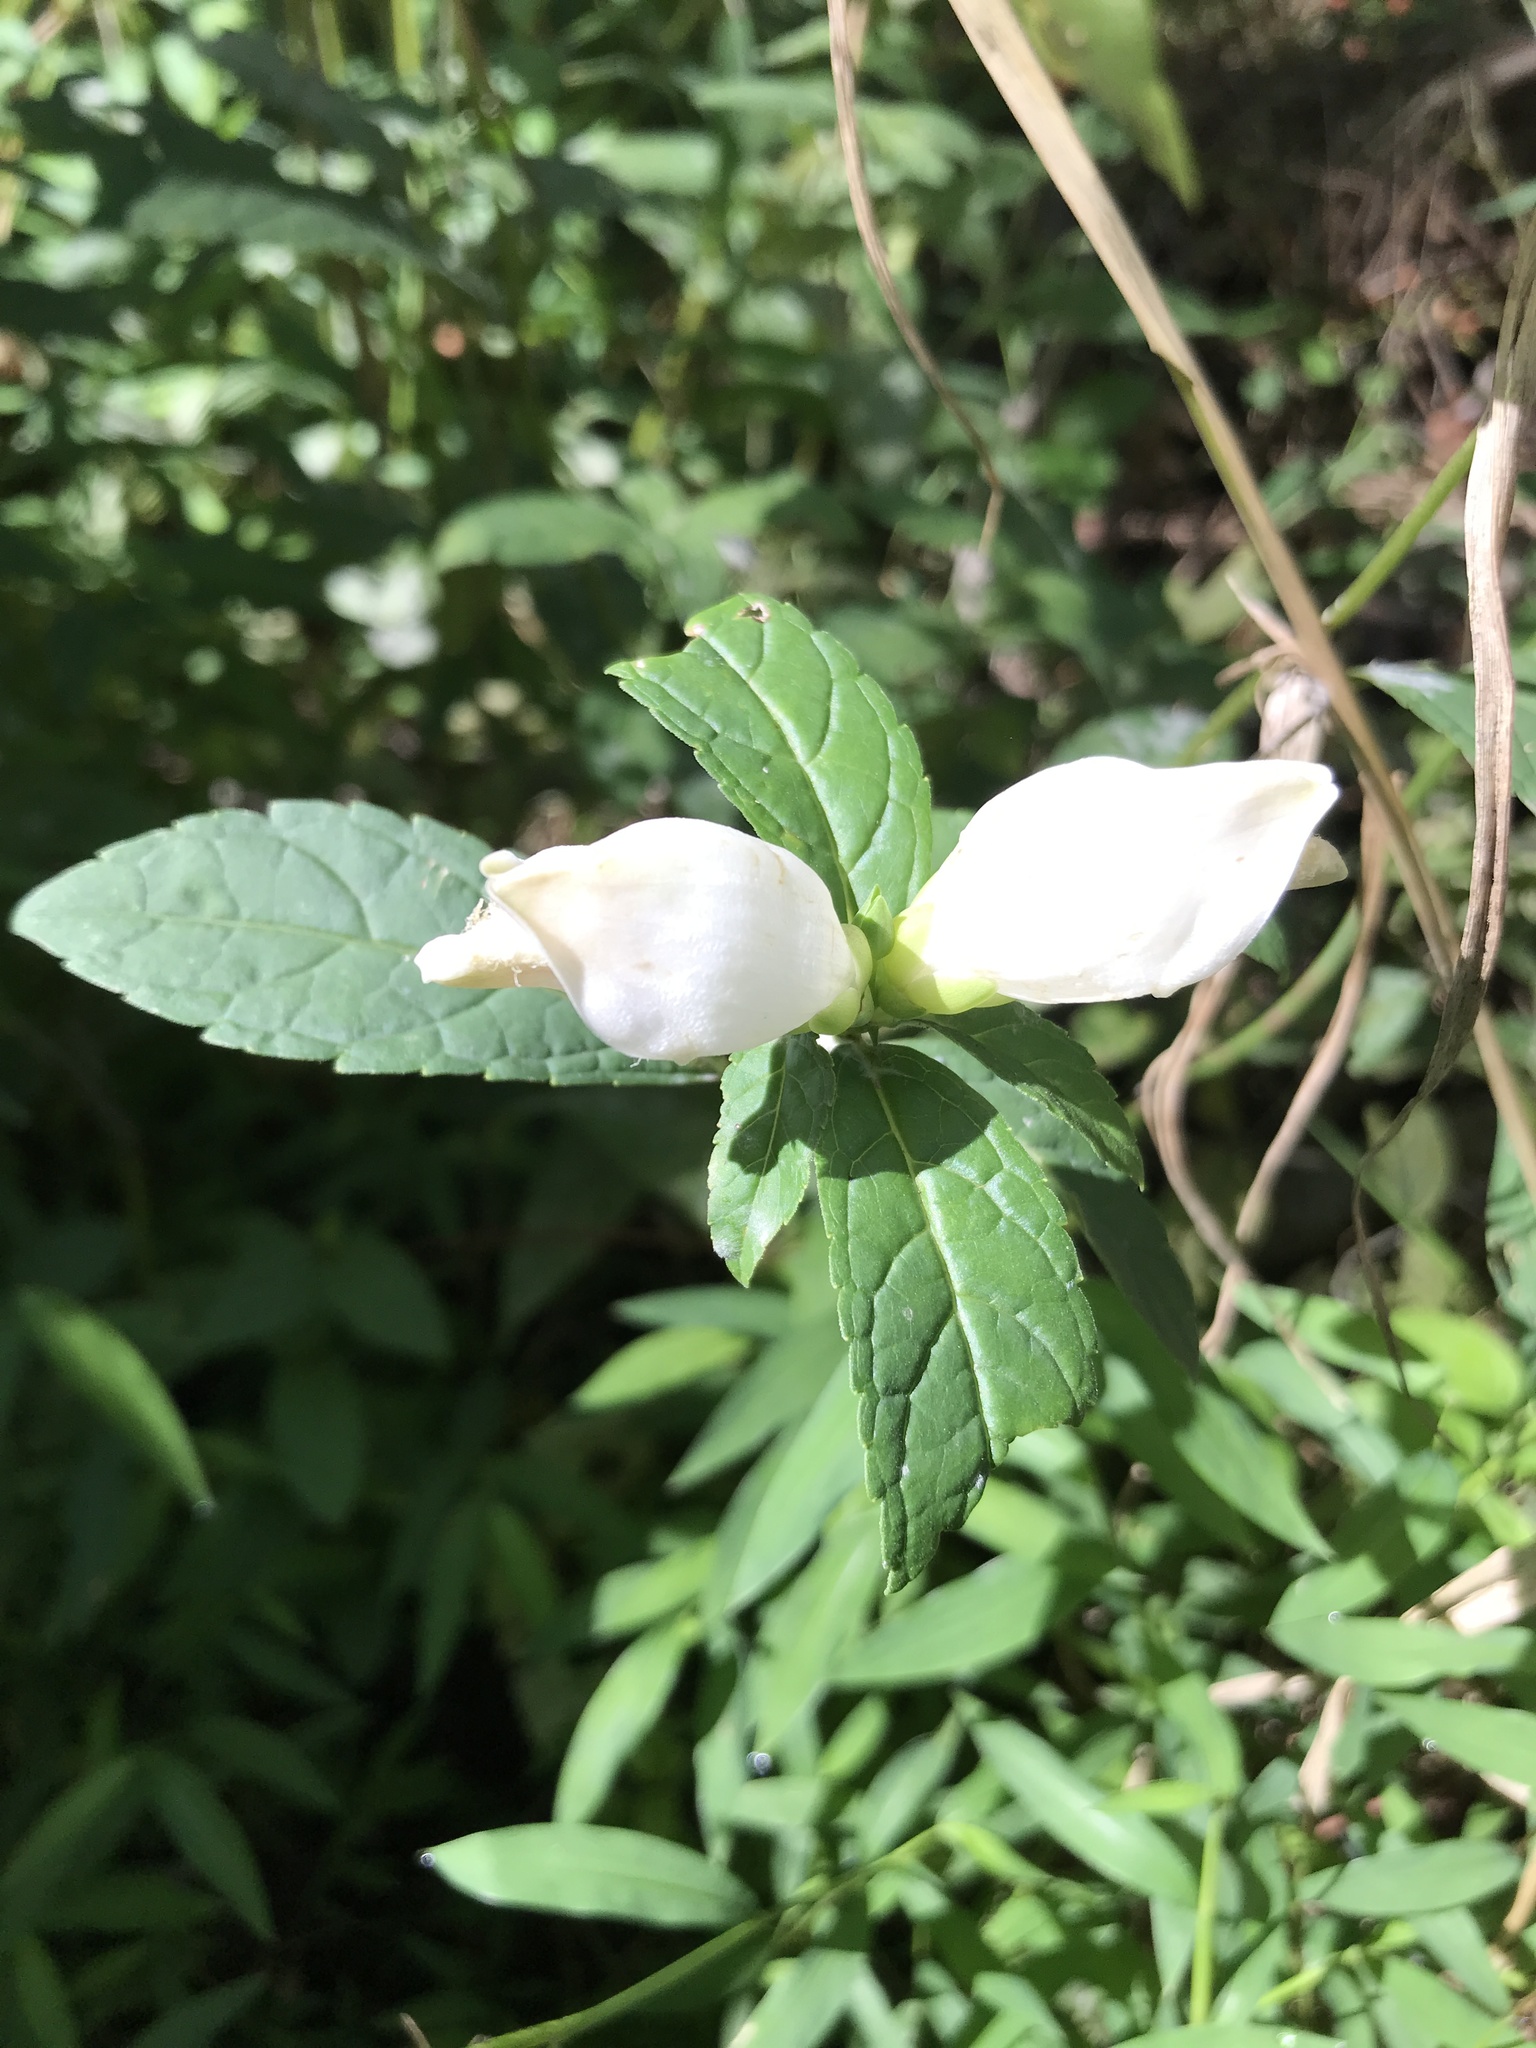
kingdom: Plantae
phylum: Tracheophyta
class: Magnoliopsida
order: Lamiales
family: Plantaginaceae
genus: Chelone
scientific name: Chelone glabra
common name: Snakehead
